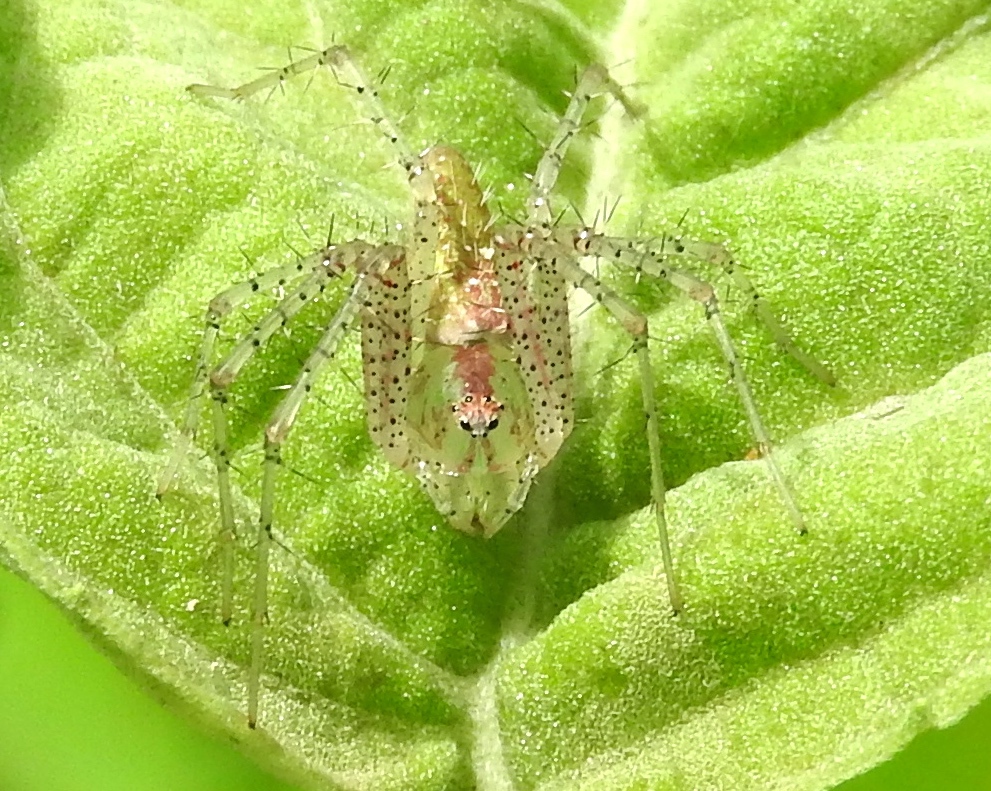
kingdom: Animalia
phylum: Arthropoda
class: Arachnida
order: Araneae
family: Oxyopidae
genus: Peucetia
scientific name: Peucetia
